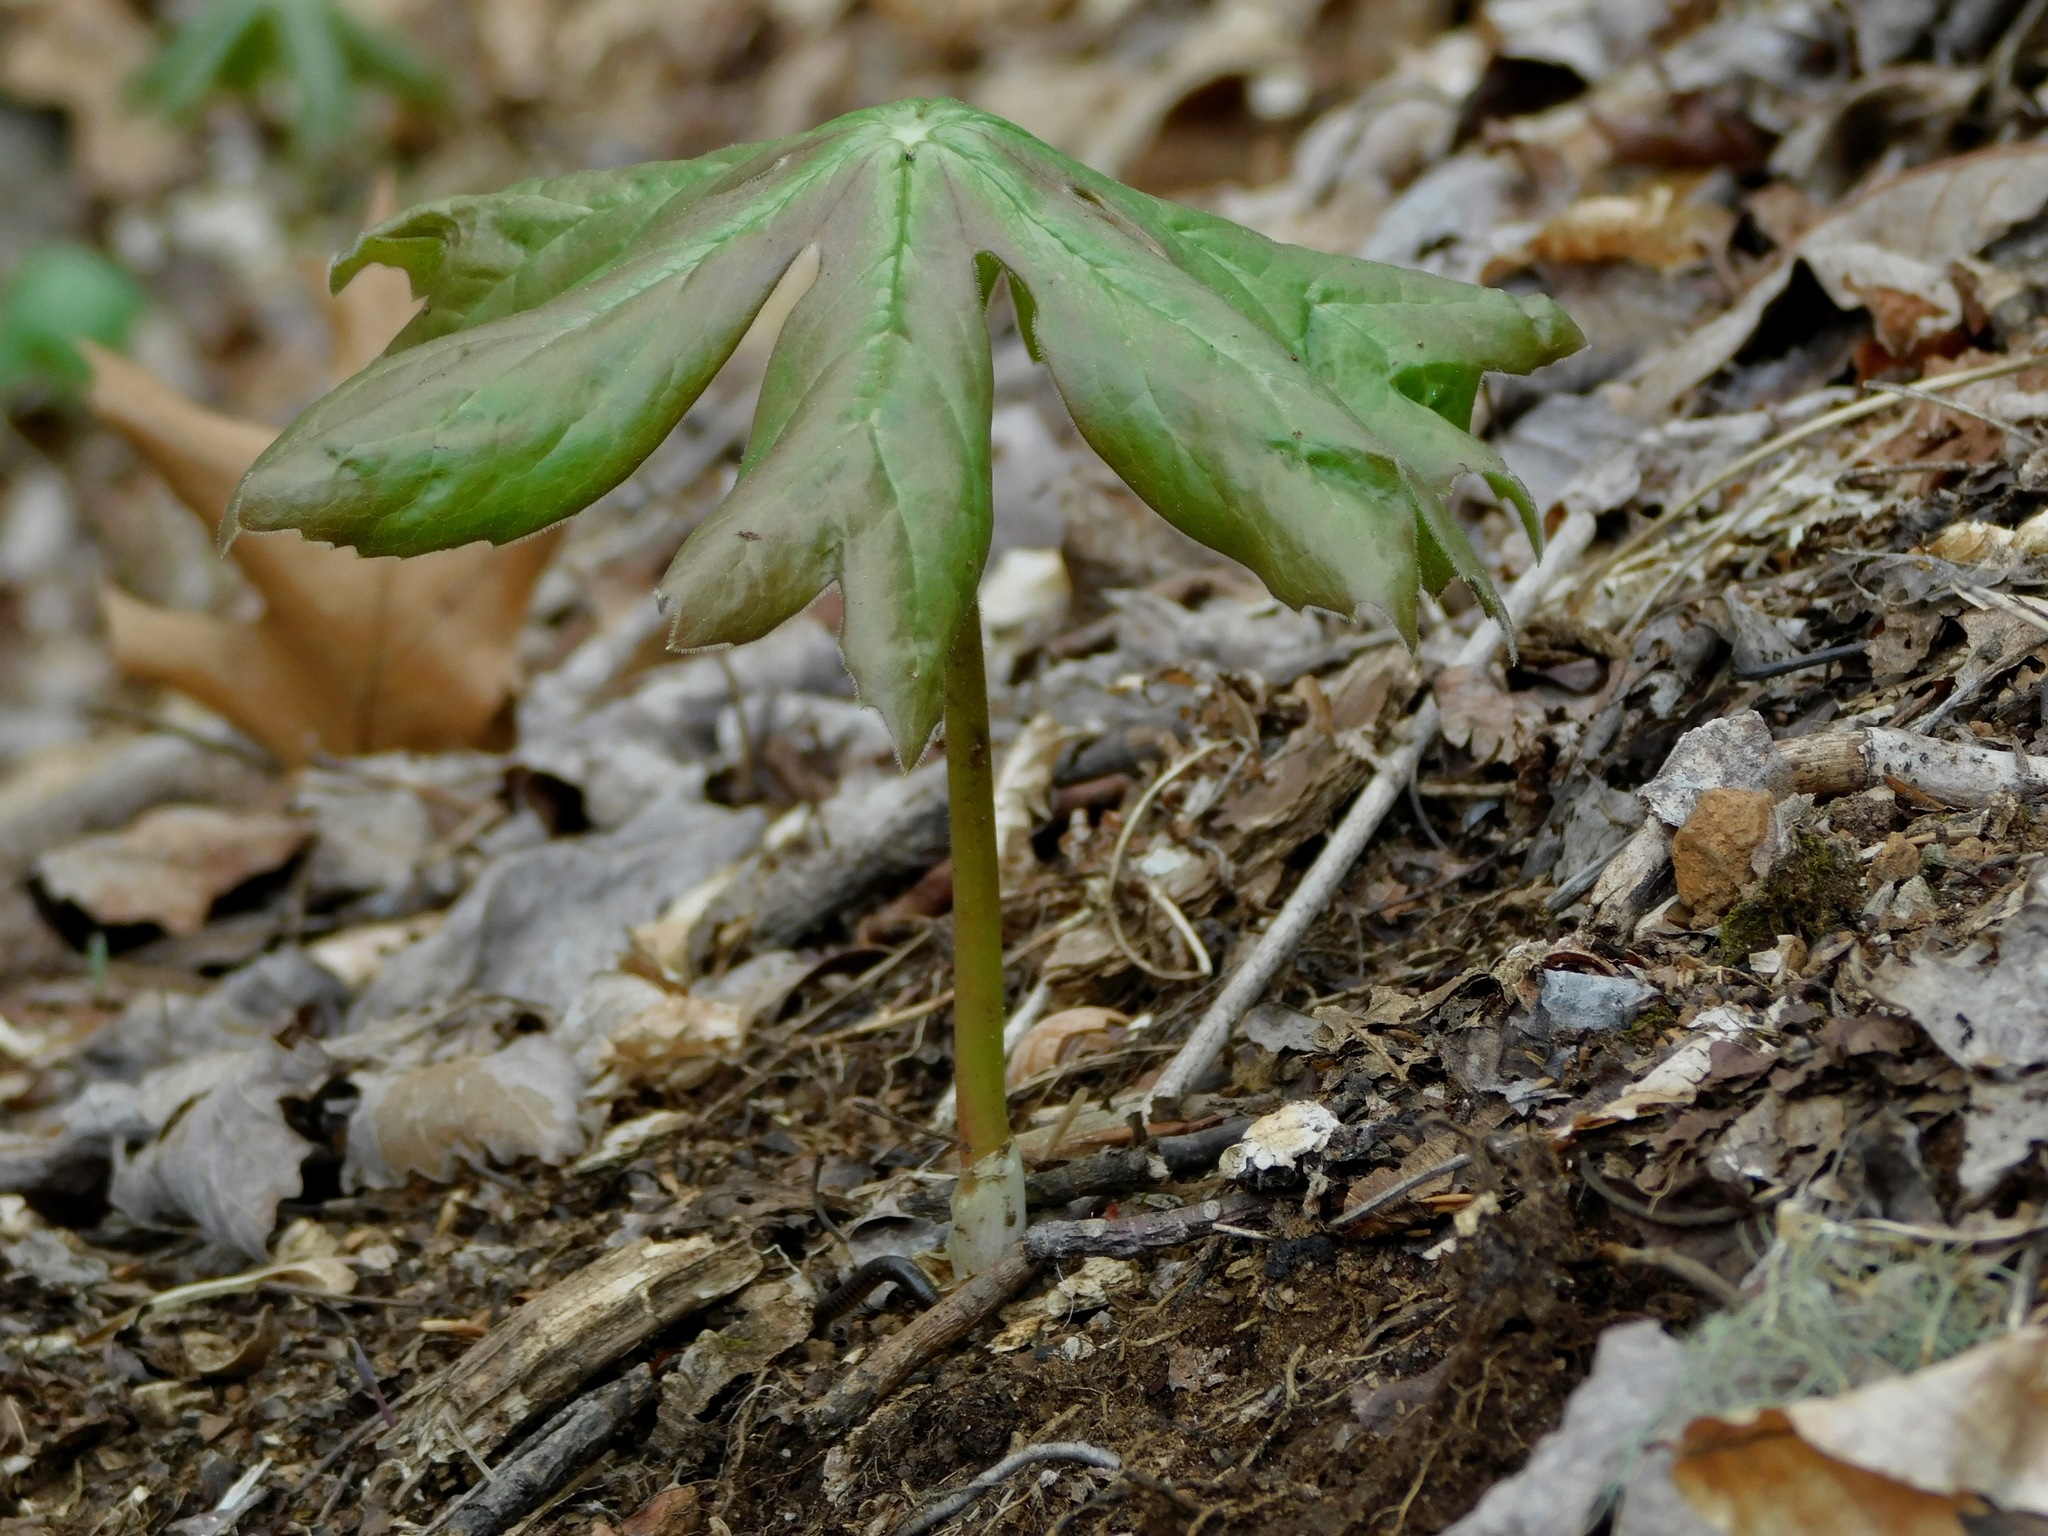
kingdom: Plantae
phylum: Tracheophyta
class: Magnoliopsida
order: Ranunculales
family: Berberidaceae
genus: Podophyllum
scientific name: Podophyllum peltatum
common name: Wild mandrake
